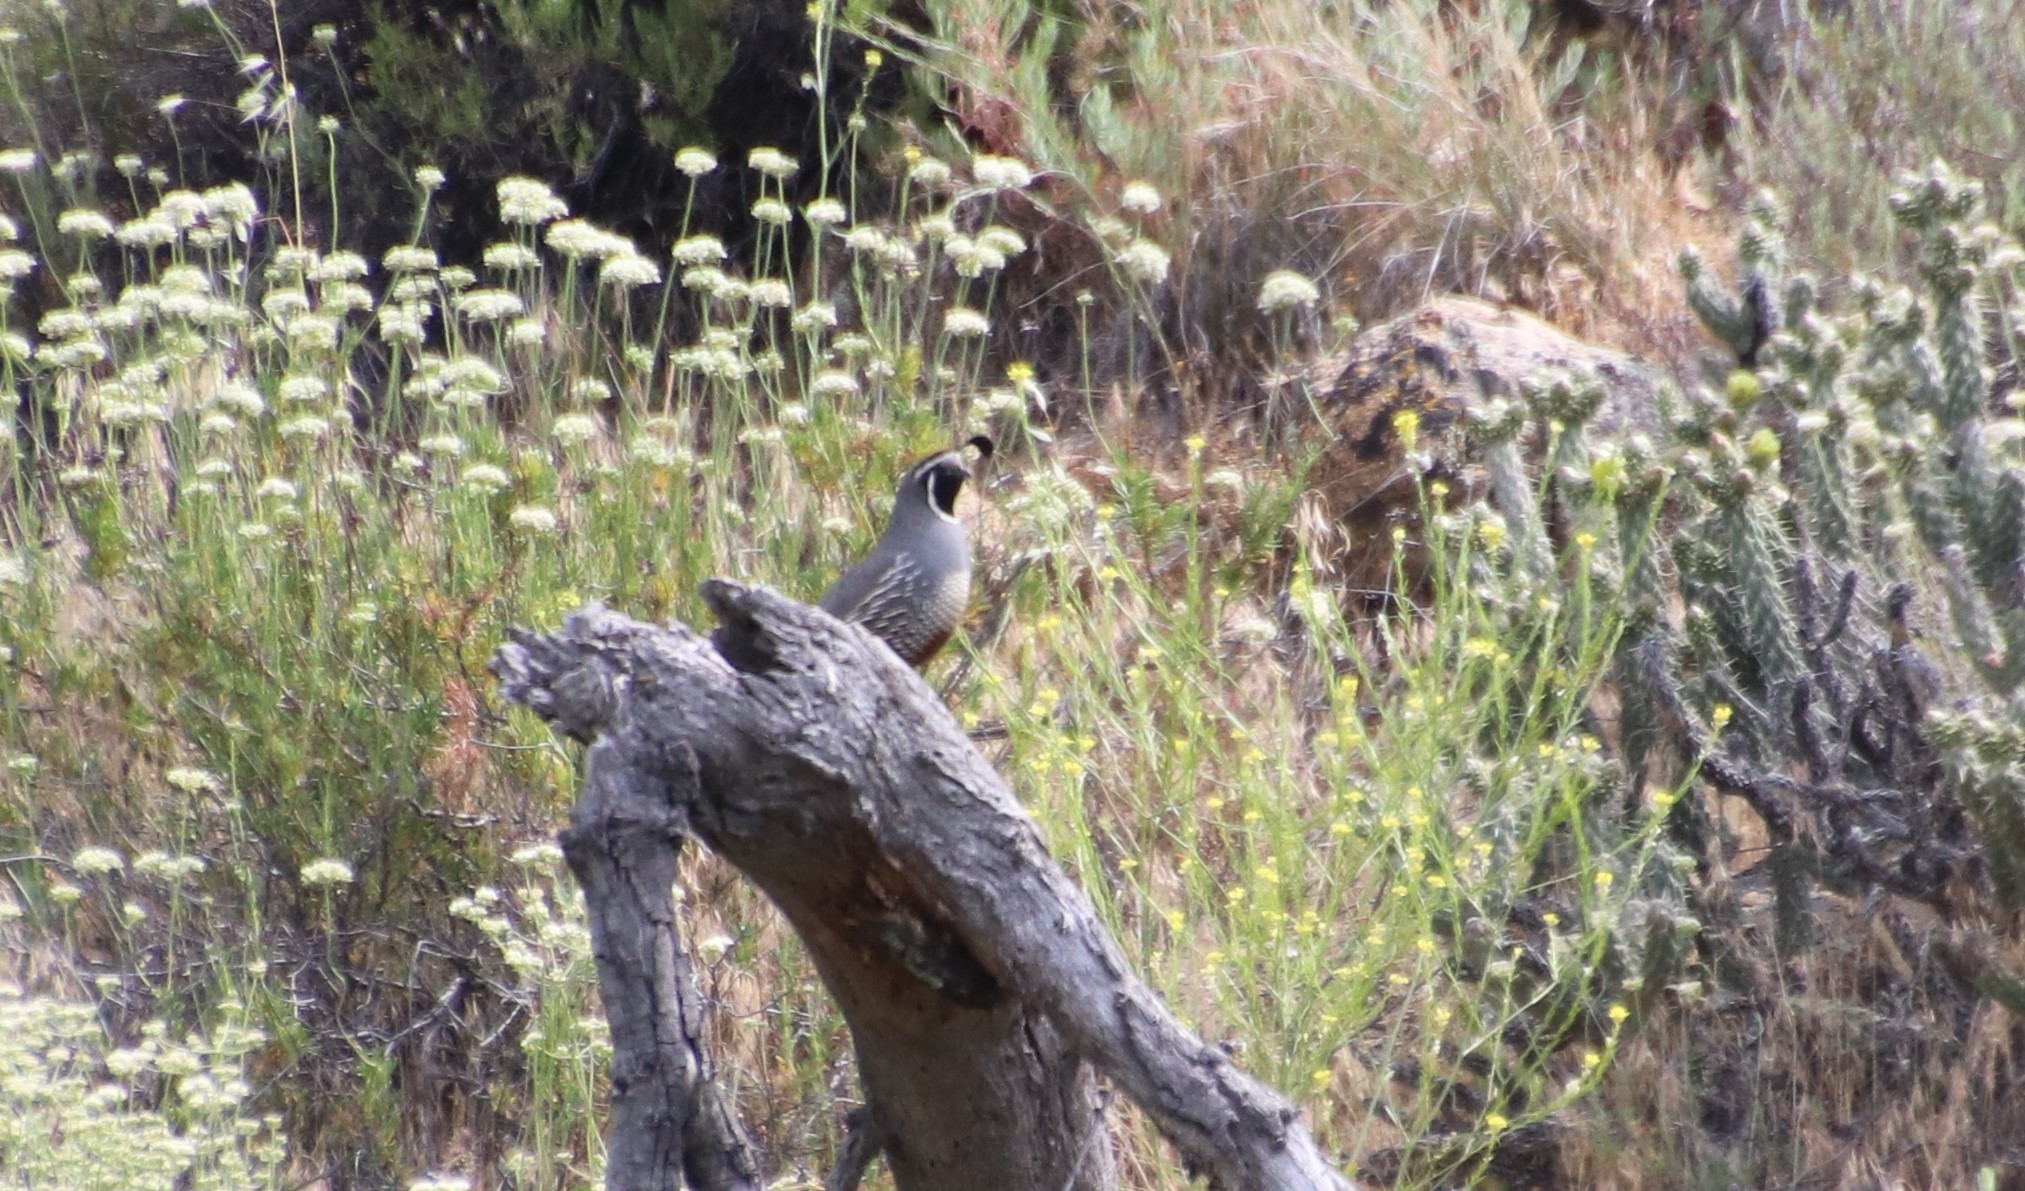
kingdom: Animalia
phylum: Chordata
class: Aves
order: Galliformes
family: Odontophoridae
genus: Callipepla
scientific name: Callipepla californica
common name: California quail
